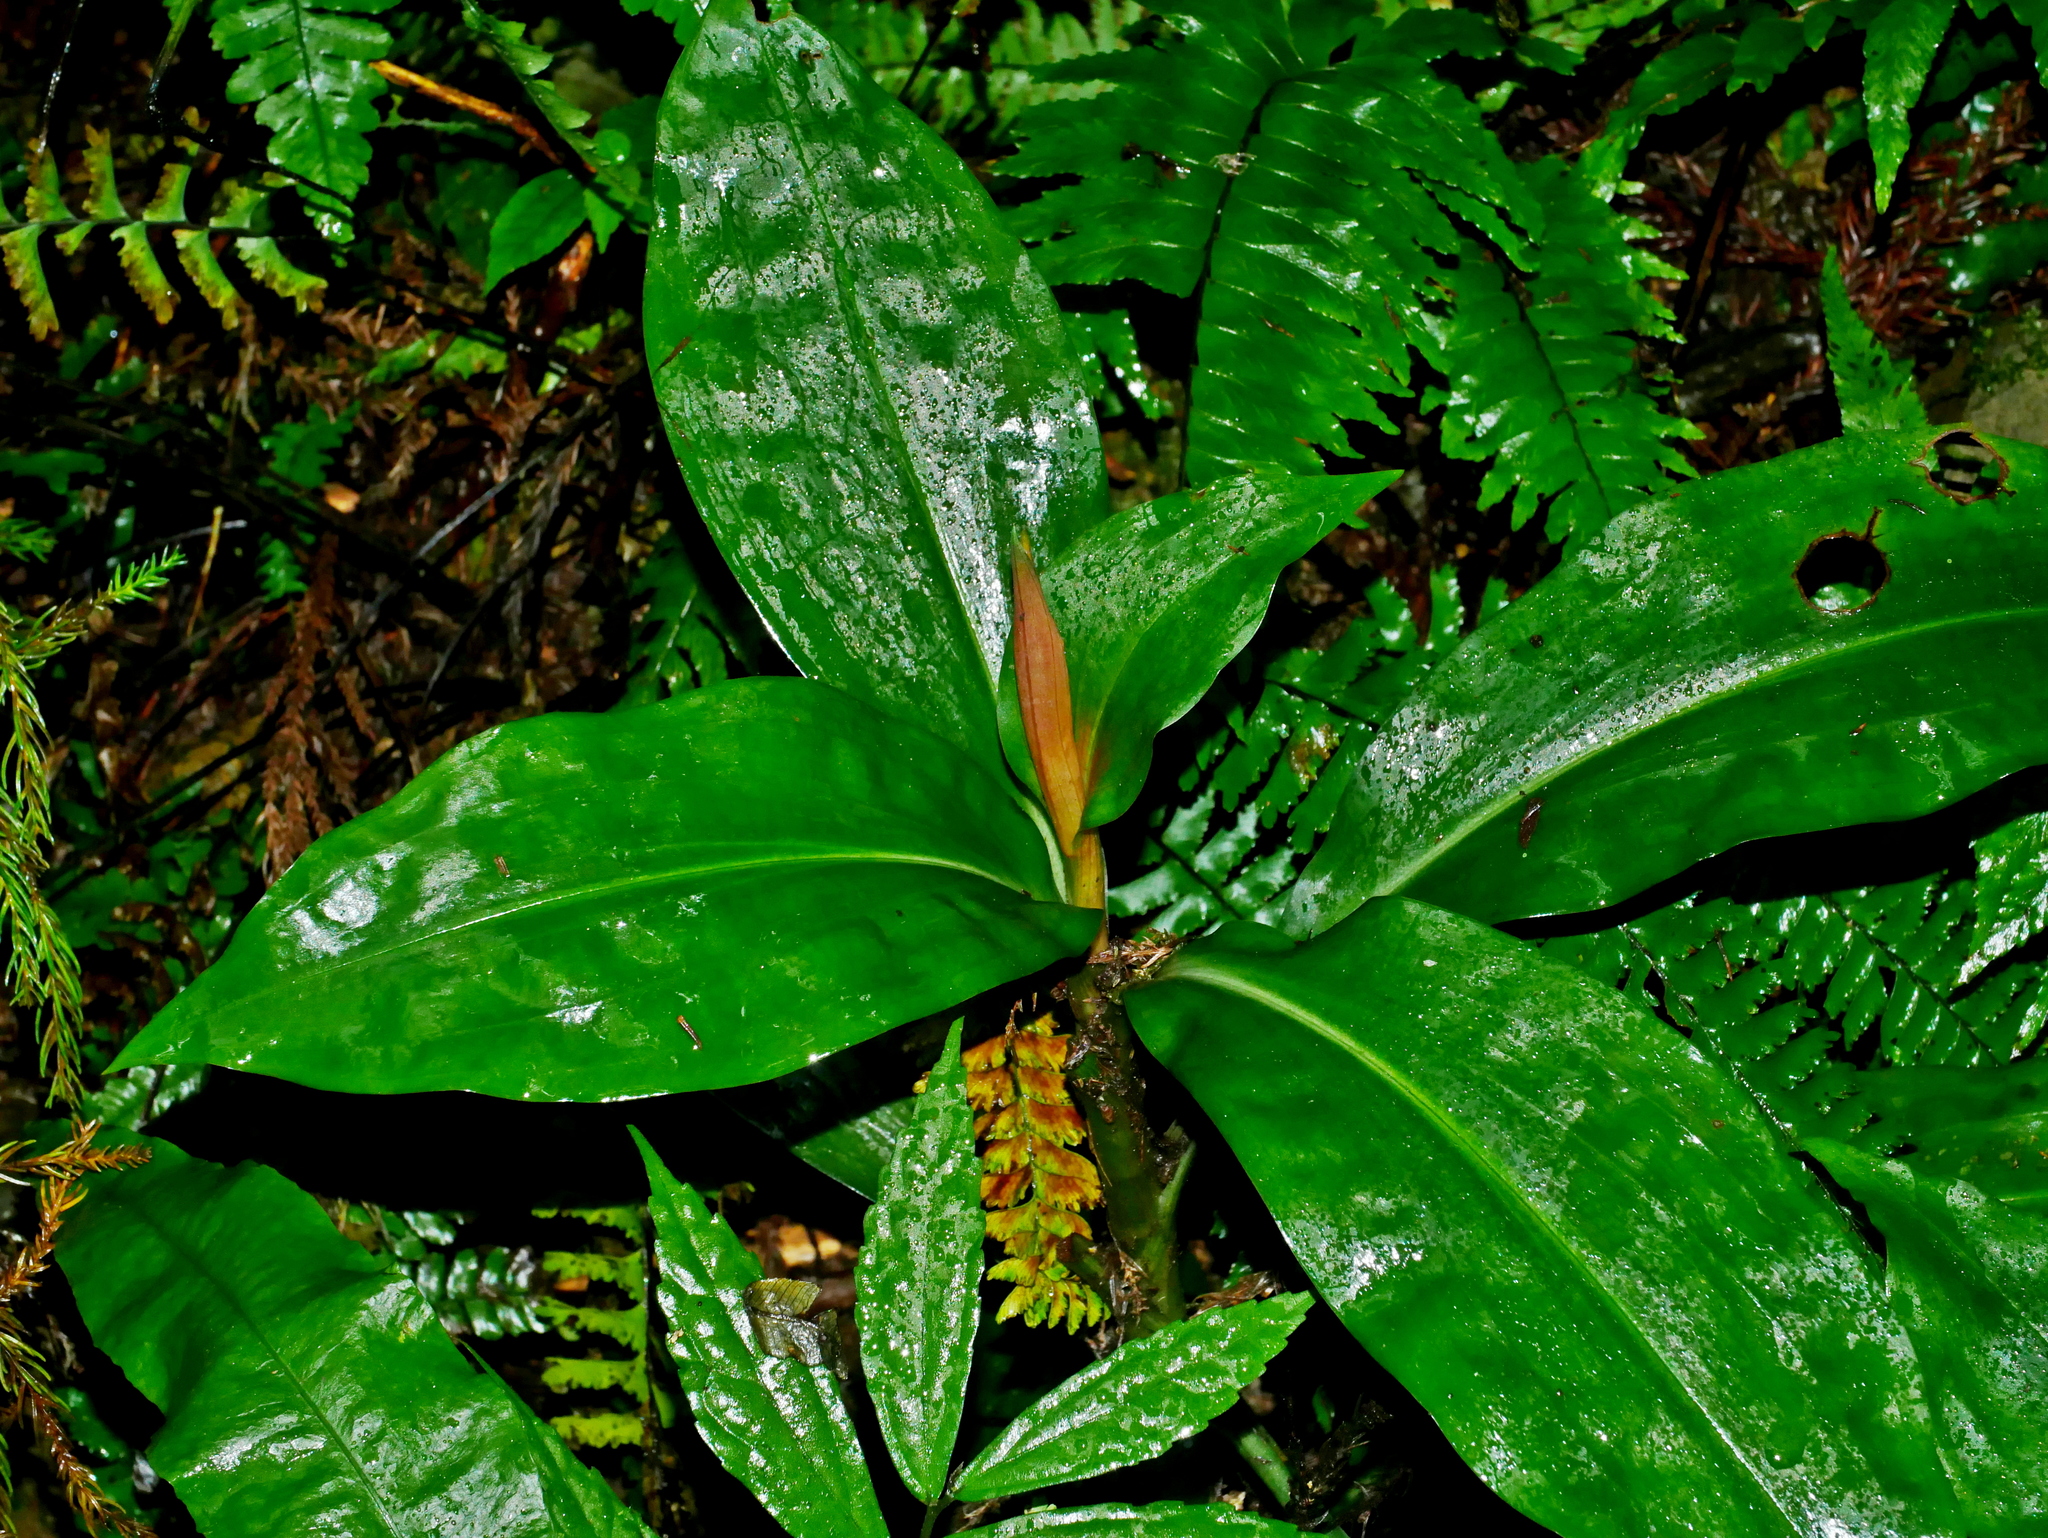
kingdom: Plantae
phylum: Tracheophyta
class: Liliopsida
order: Asparagales
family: Orchidaceae
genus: Goodyera
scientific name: Goodyera fumata
